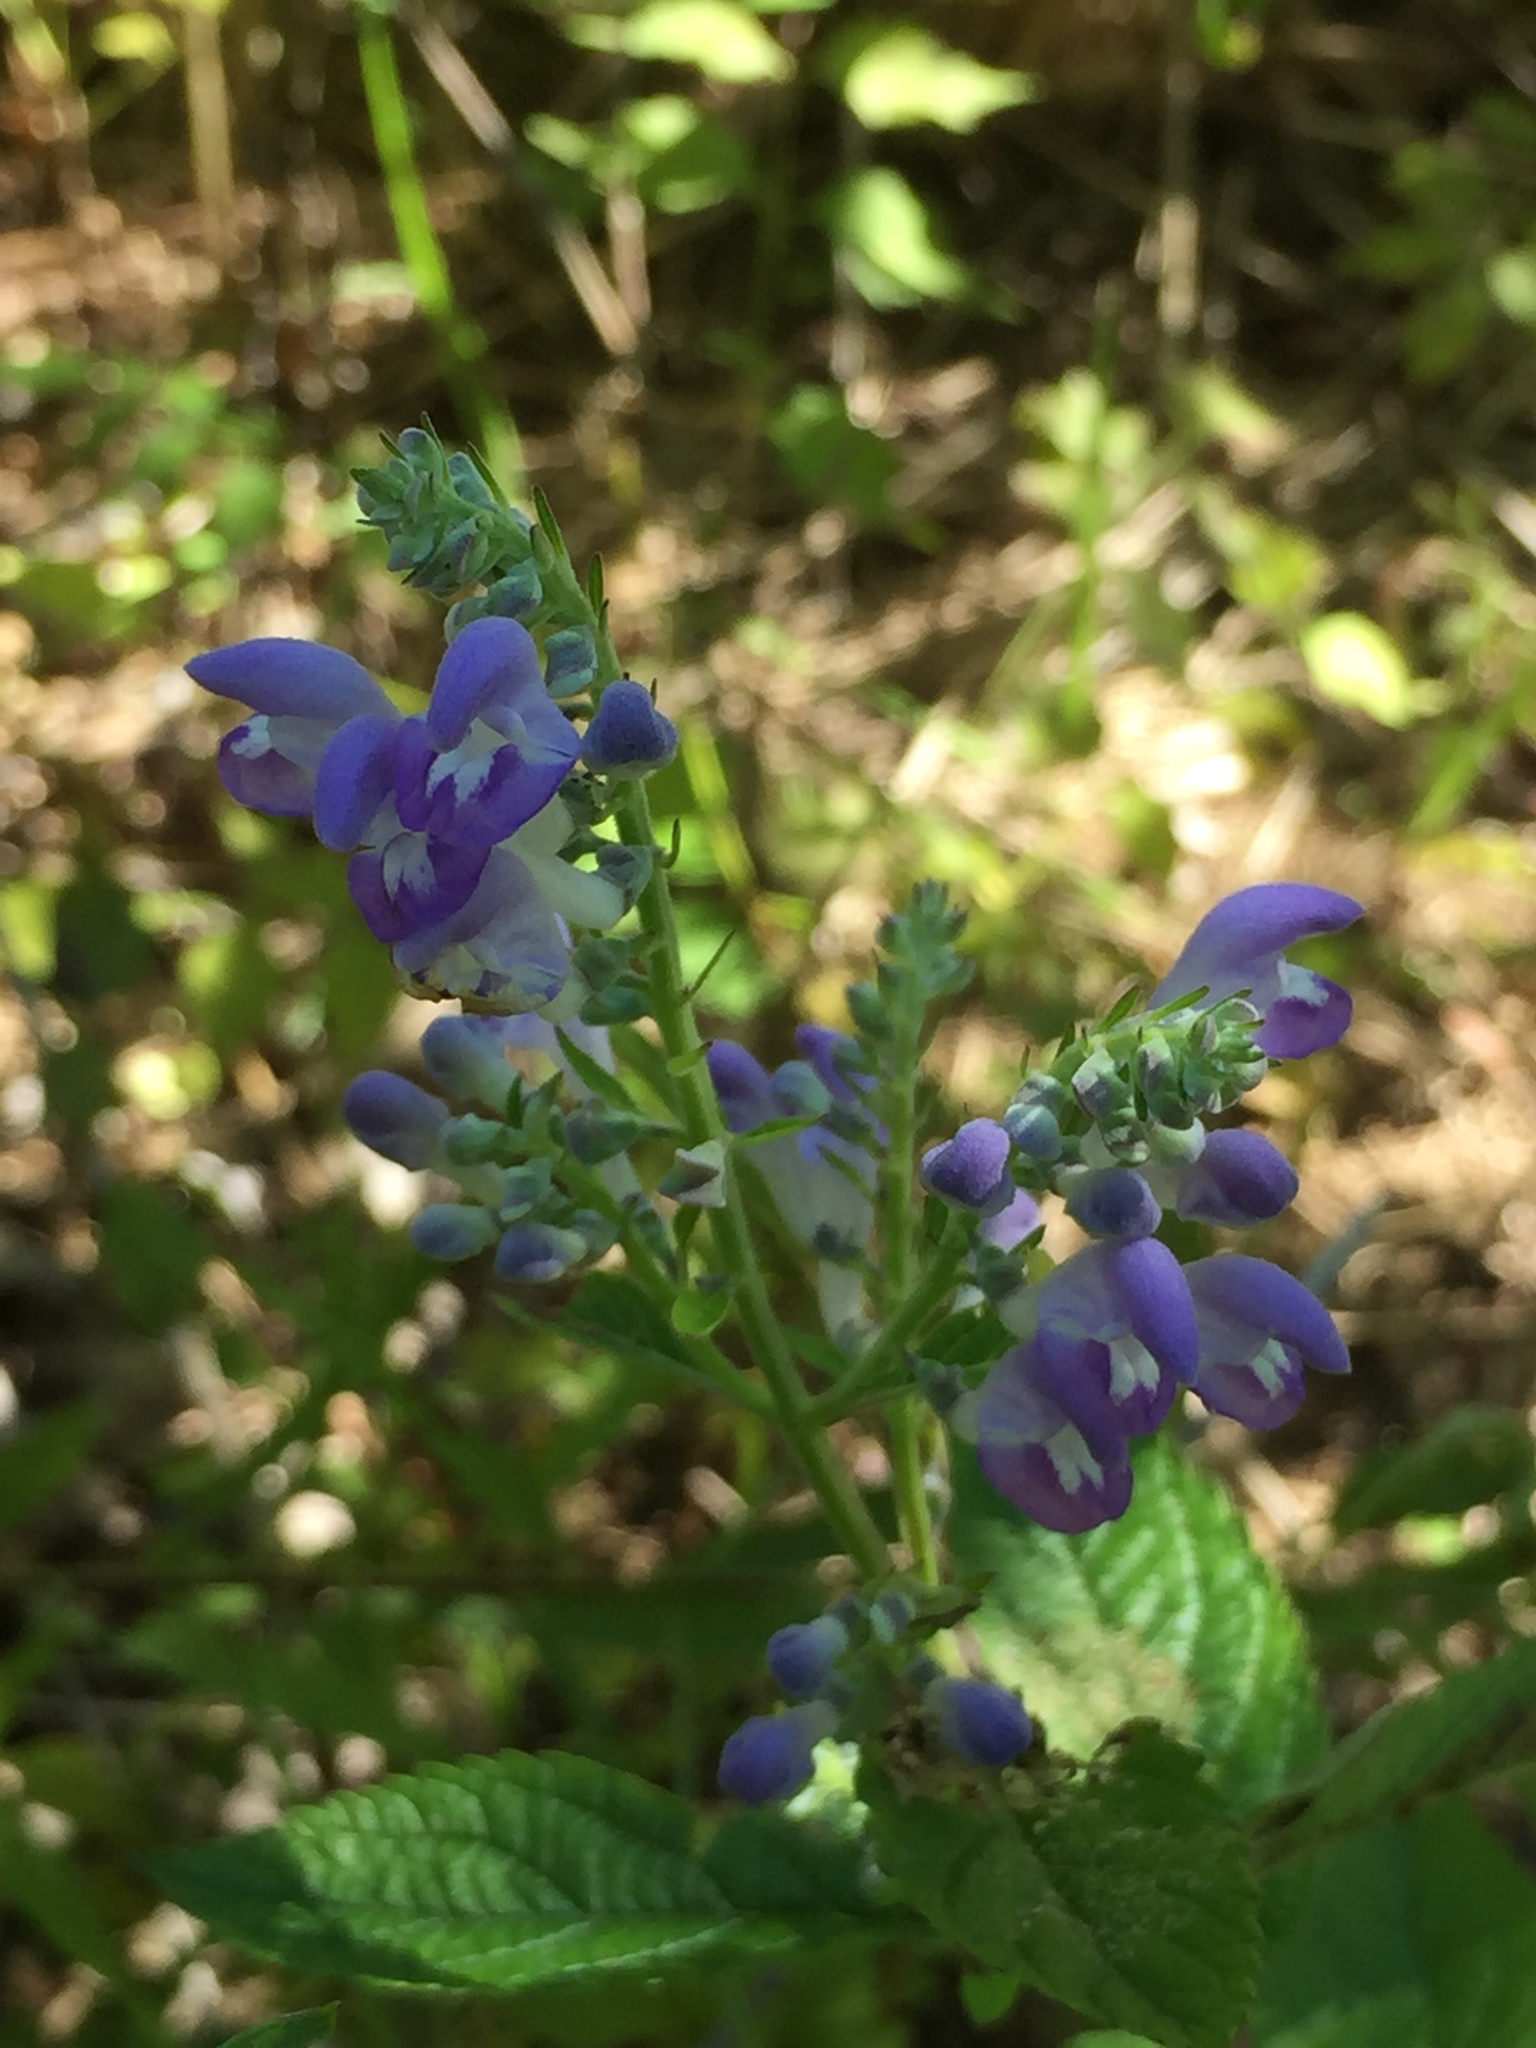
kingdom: Plantae
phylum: Tracheophyta
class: Magnoliopsida
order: Lamiales
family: Lamiaceae
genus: Scutellaria
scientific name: Scutellaria incana
